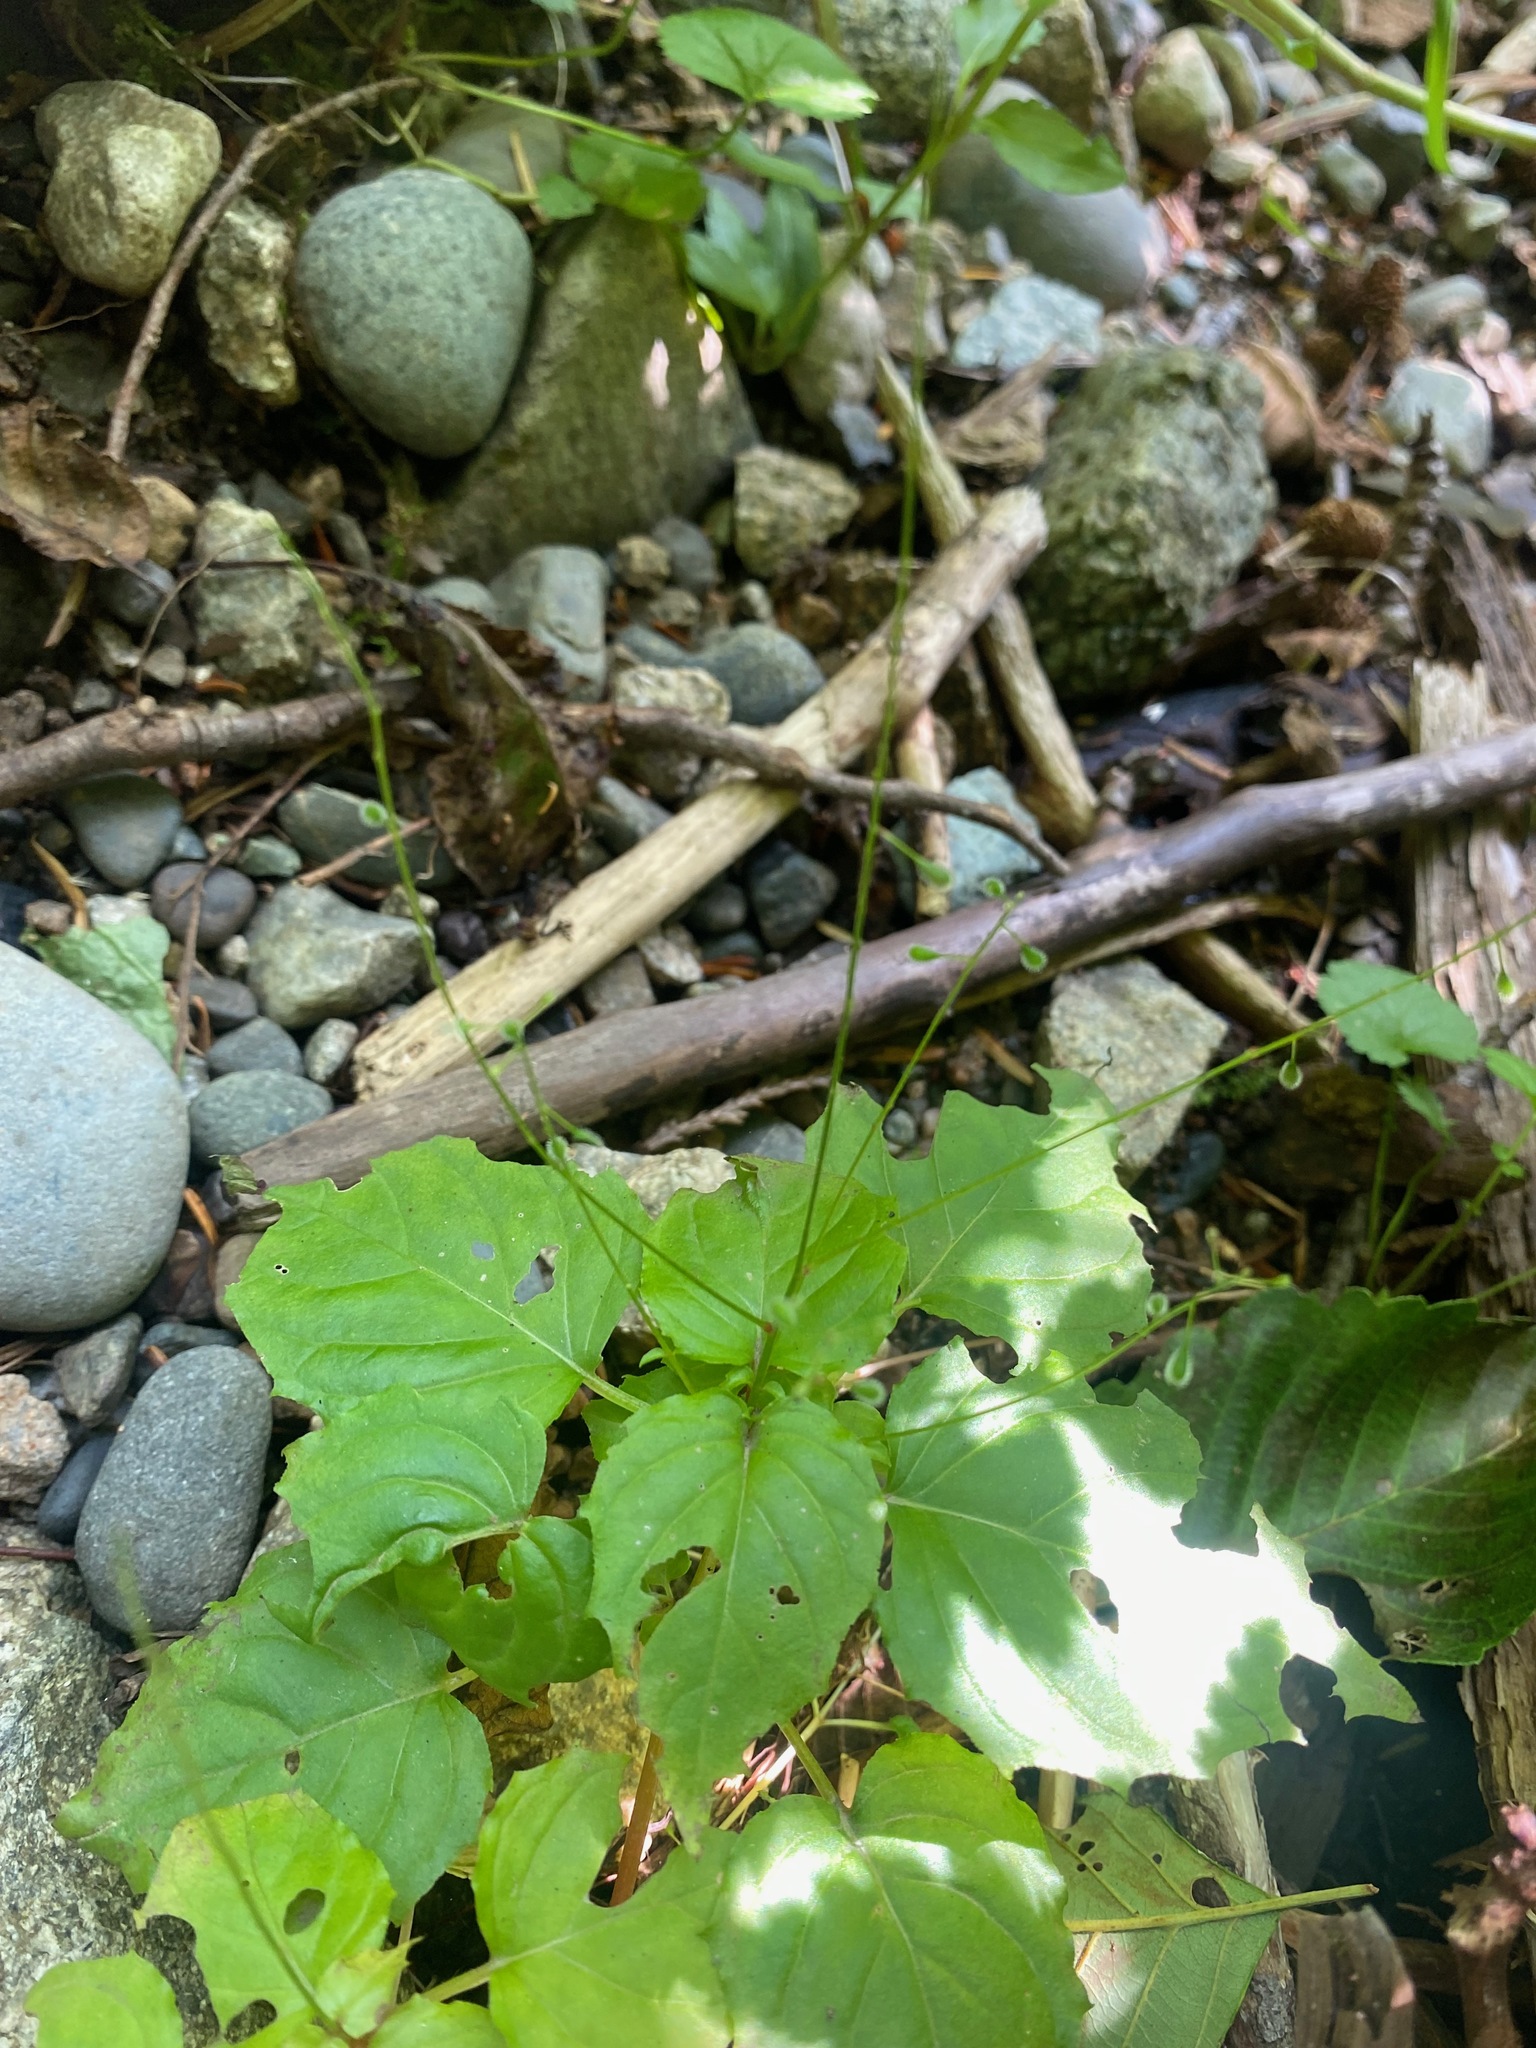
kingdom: Plantae
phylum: Tracheophyta
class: Magnoliopsida
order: Myrtales
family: Onagraceae
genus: Circaea
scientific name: Circaea alpina
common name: Alpine enchanter's-nightshade
